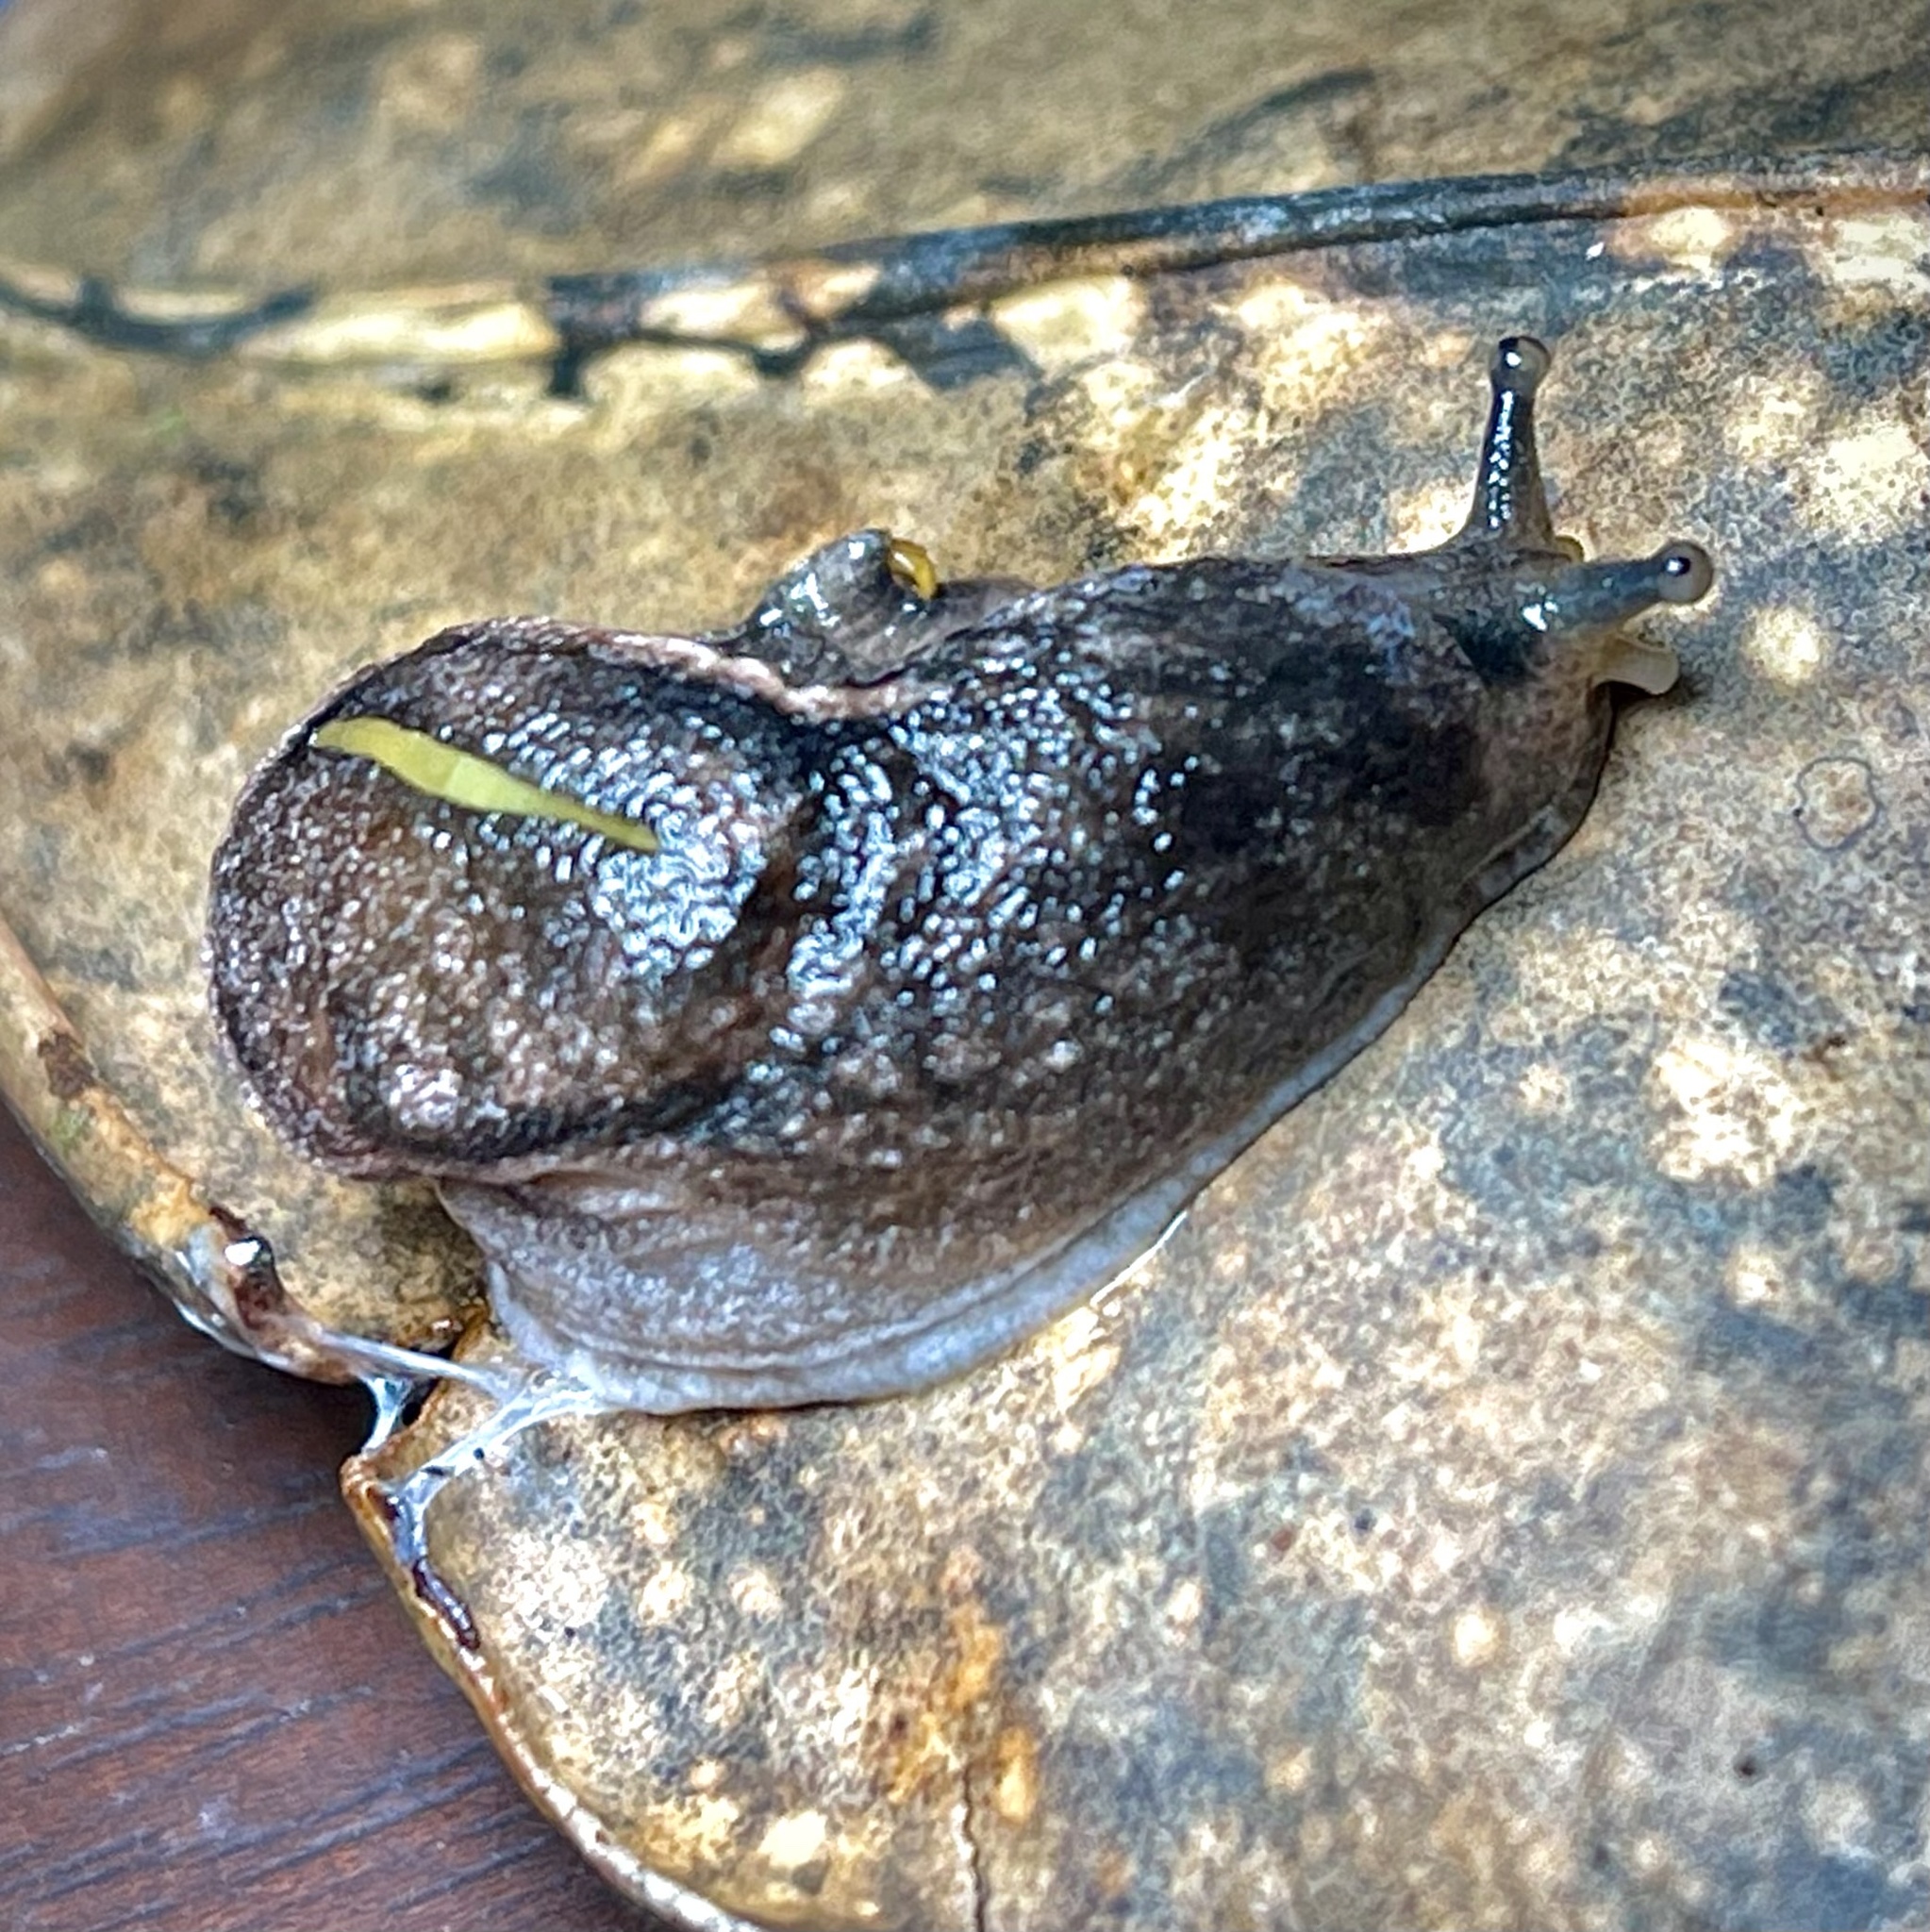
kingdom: Animalia
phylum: Mollusca
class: Gastropoda
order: Stylommatophora
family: Ariophantidae
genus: Parmarion
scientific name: Parmarion martensi
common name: Semi-slug
